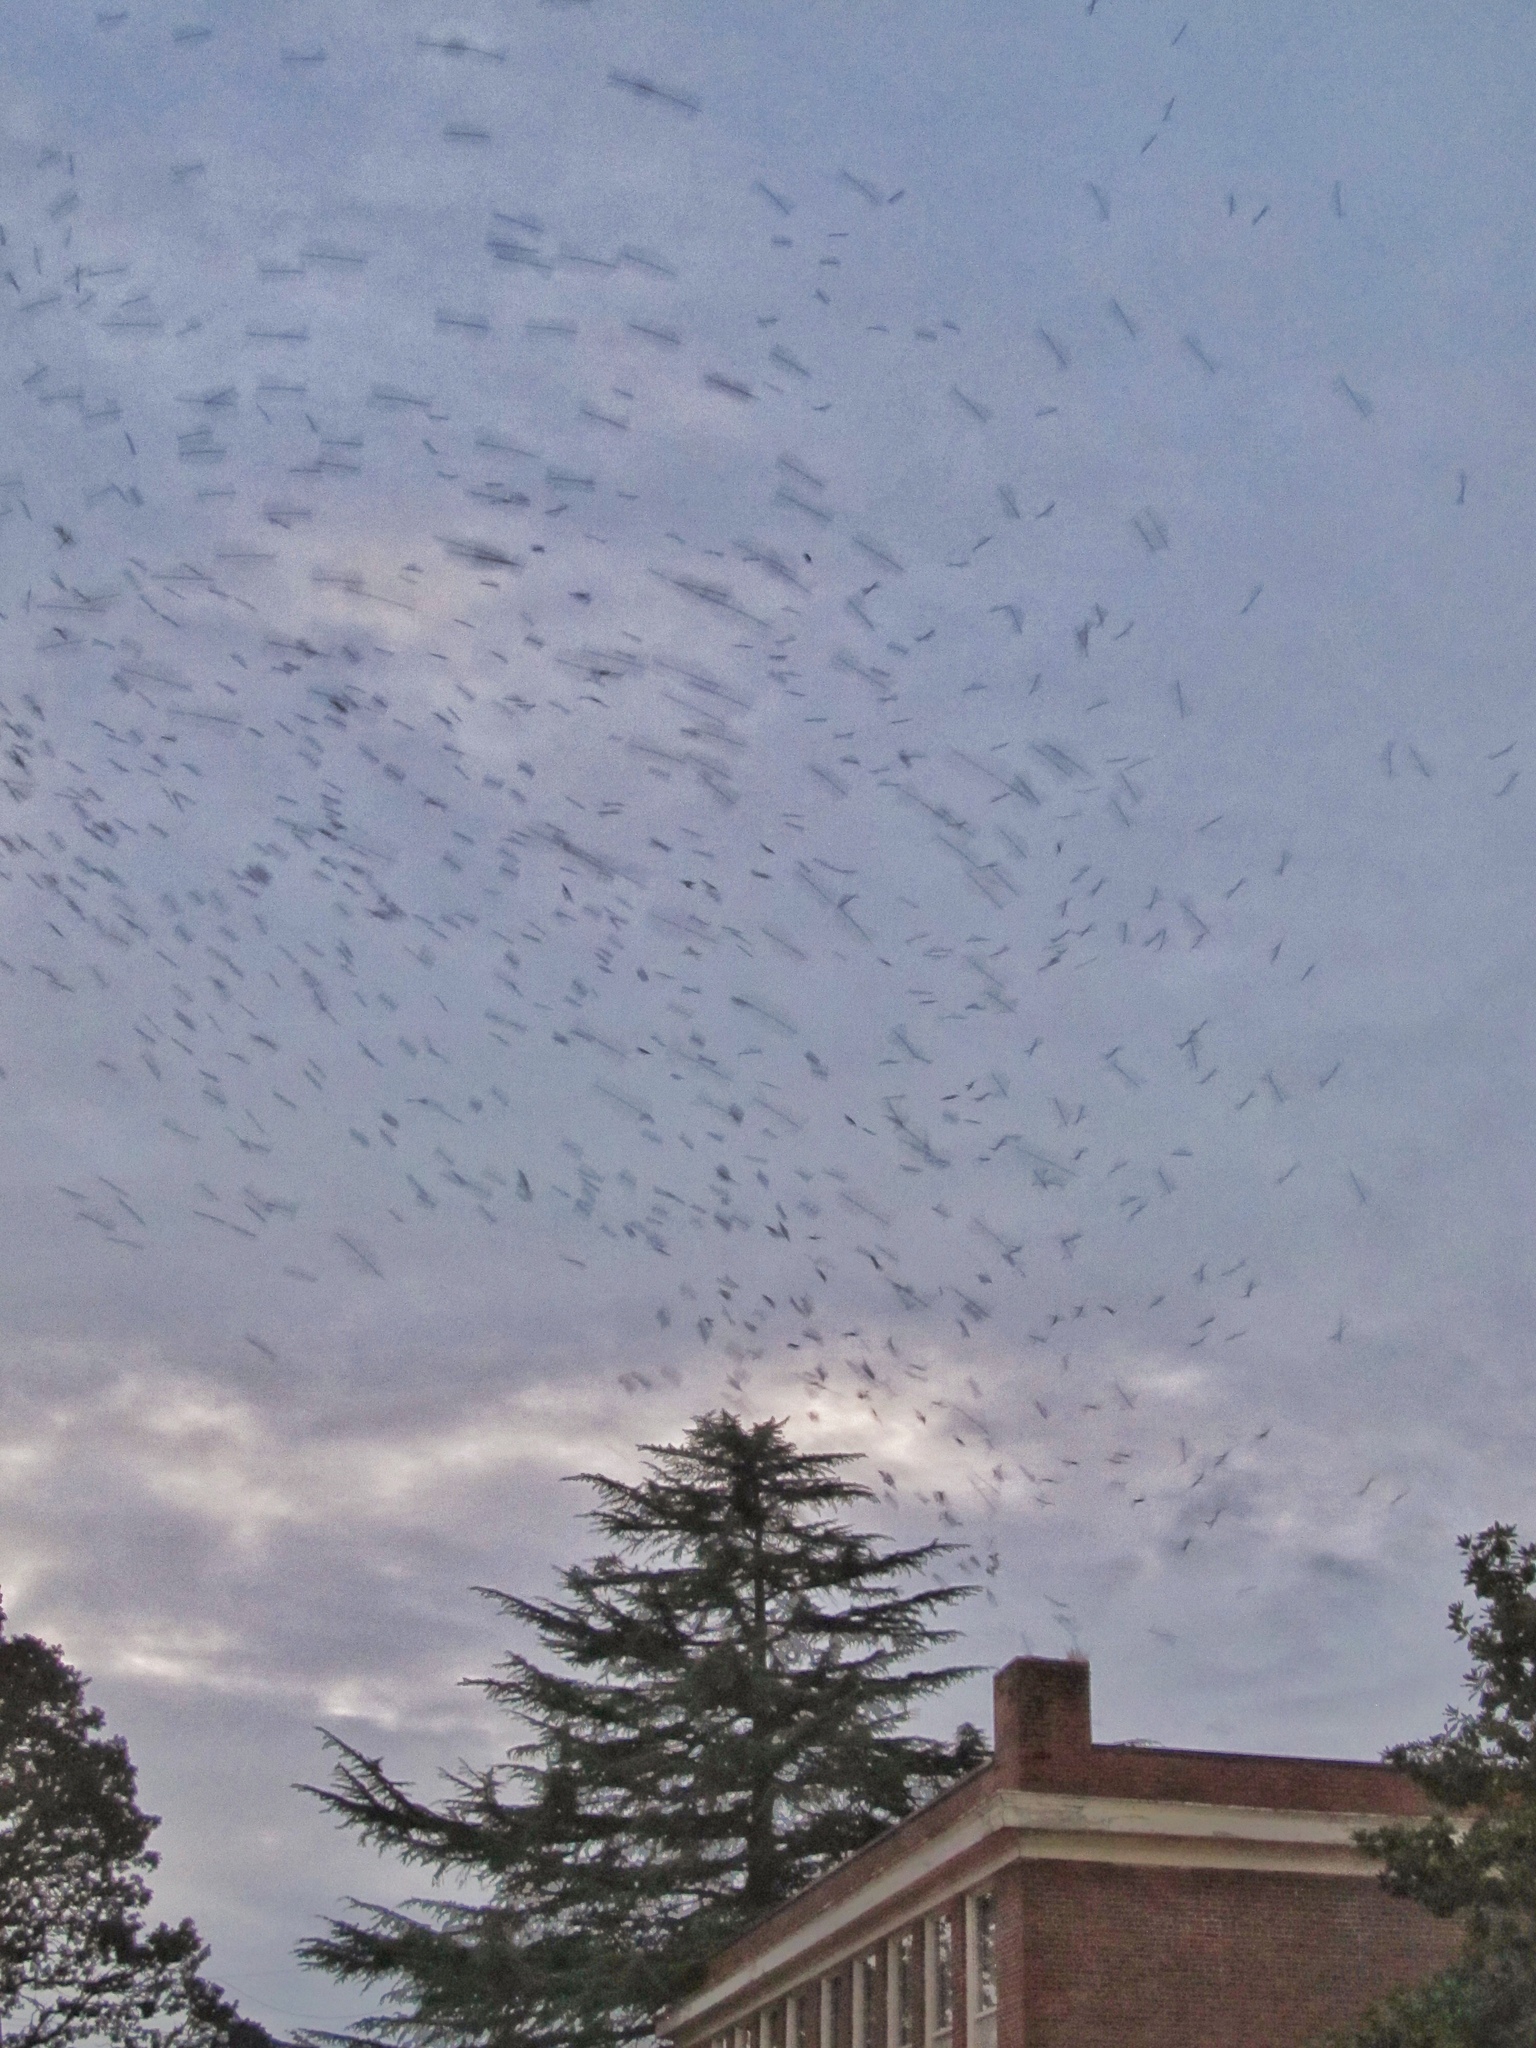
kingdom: Animalia
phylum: Chordata
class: Aves
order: Apodiformes
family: Apodidae
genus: Chaetura
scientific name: Chaetura vauxi
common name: Vaux's swift
